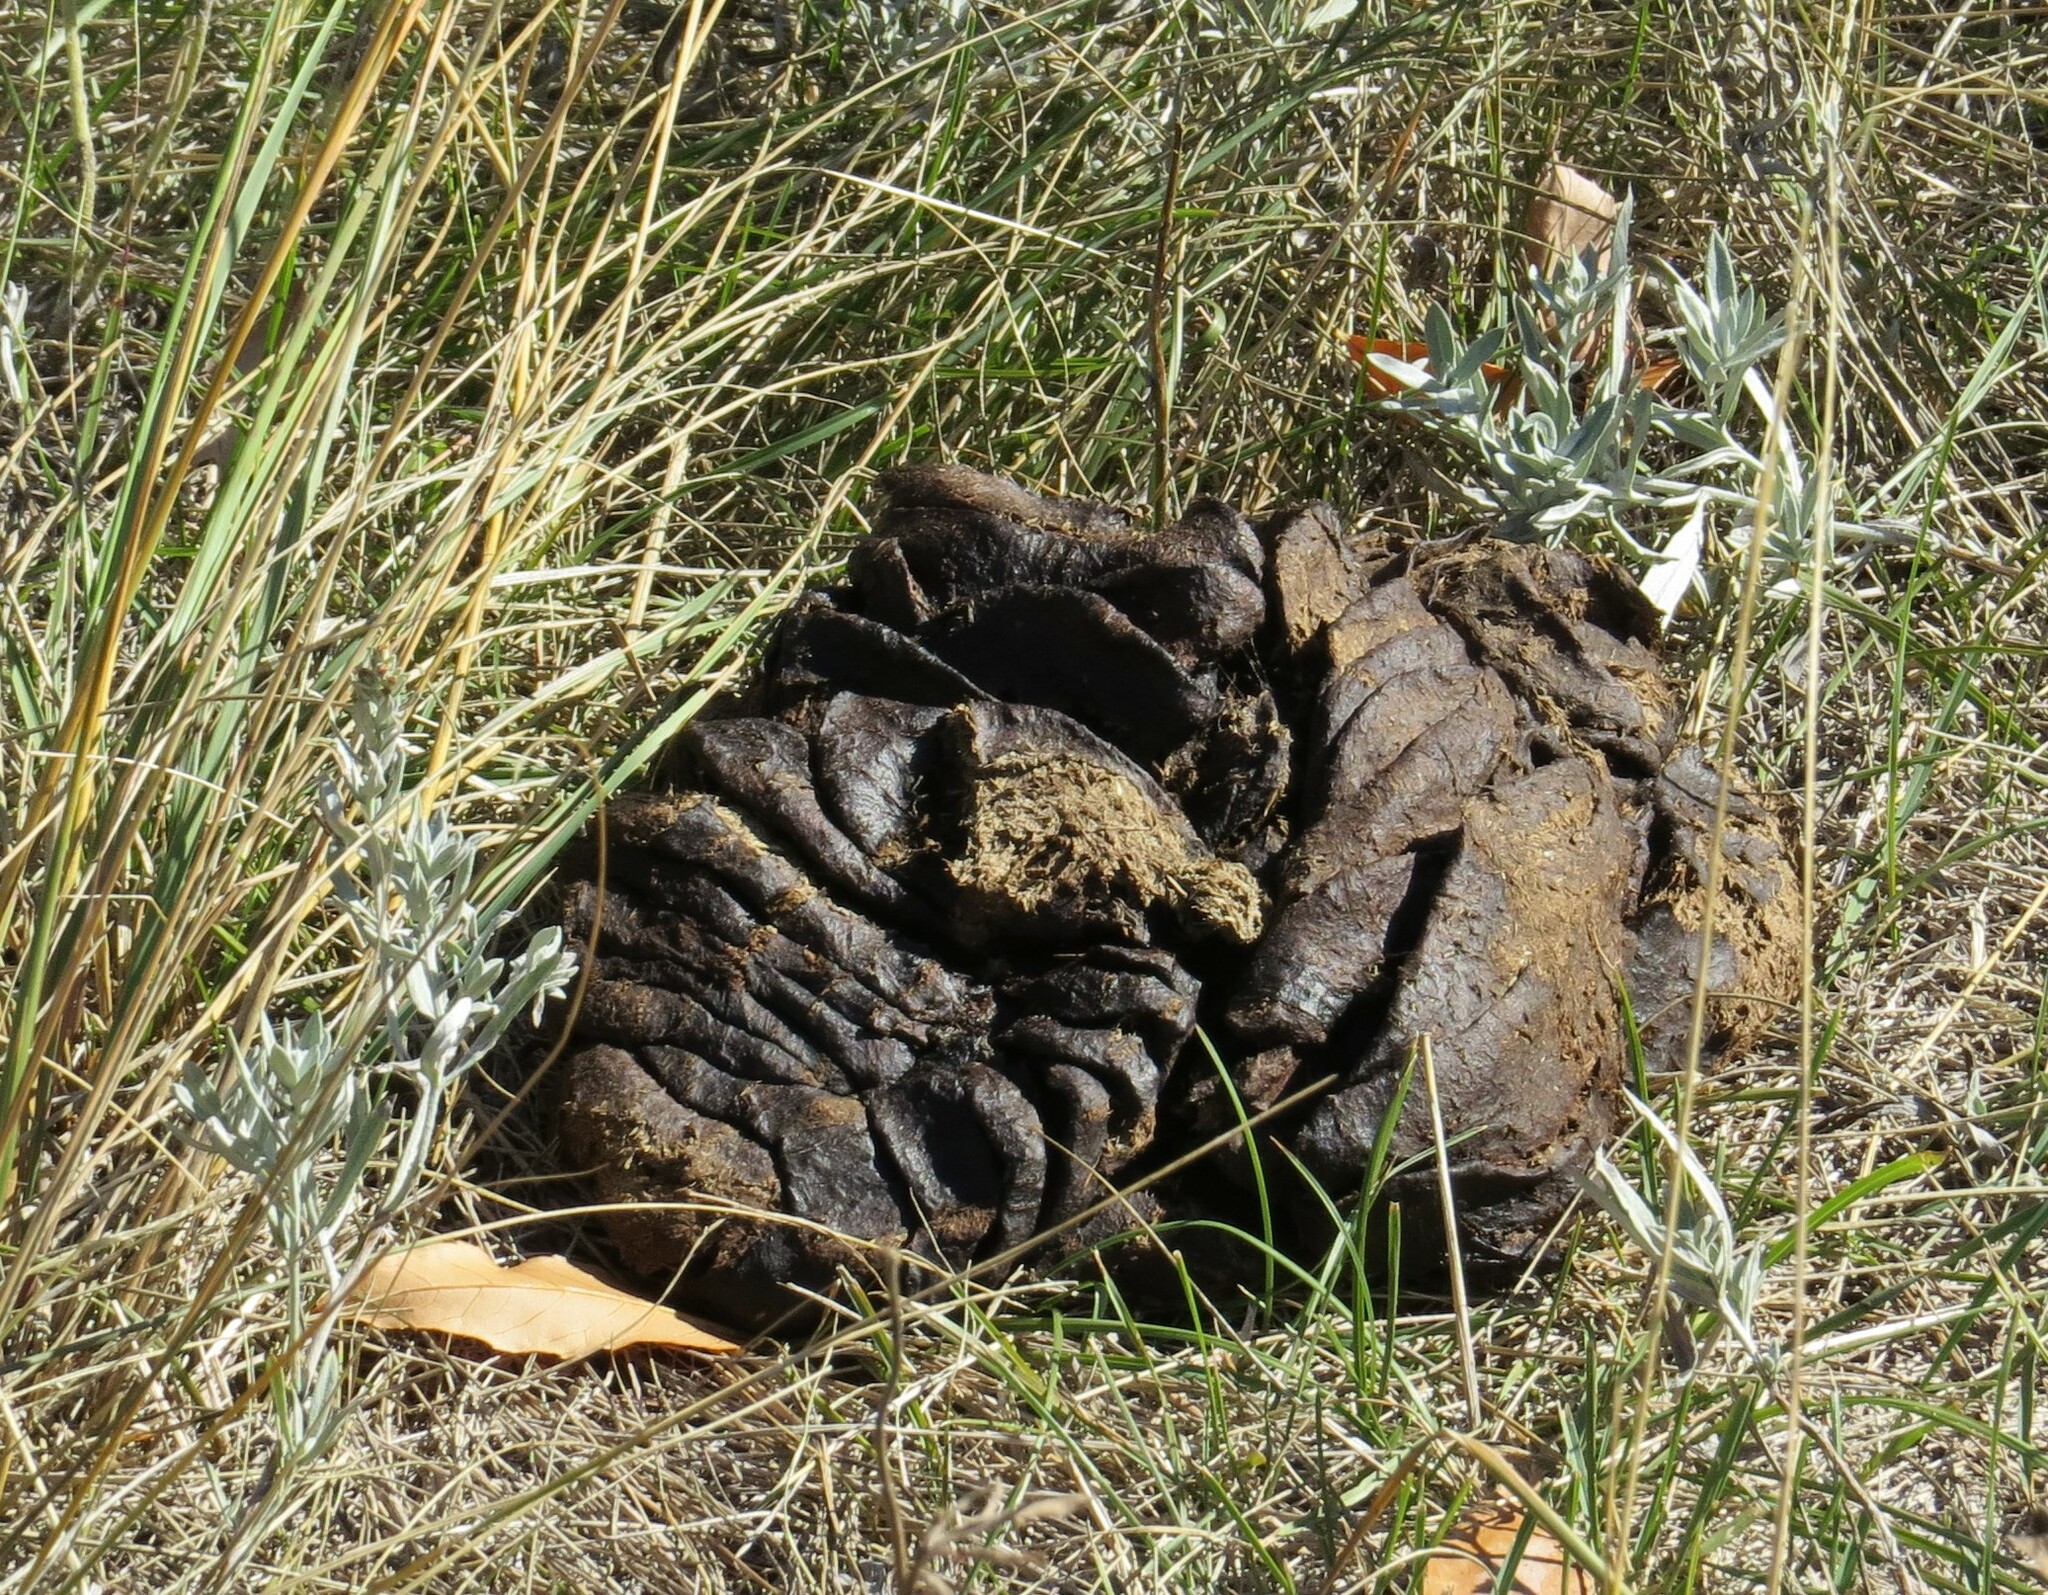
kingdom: Animalia
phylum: Chordata
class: Mammalia
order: Artiodactyla
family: Bovidae
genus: Bison
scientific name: Bison bison
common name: American bison
